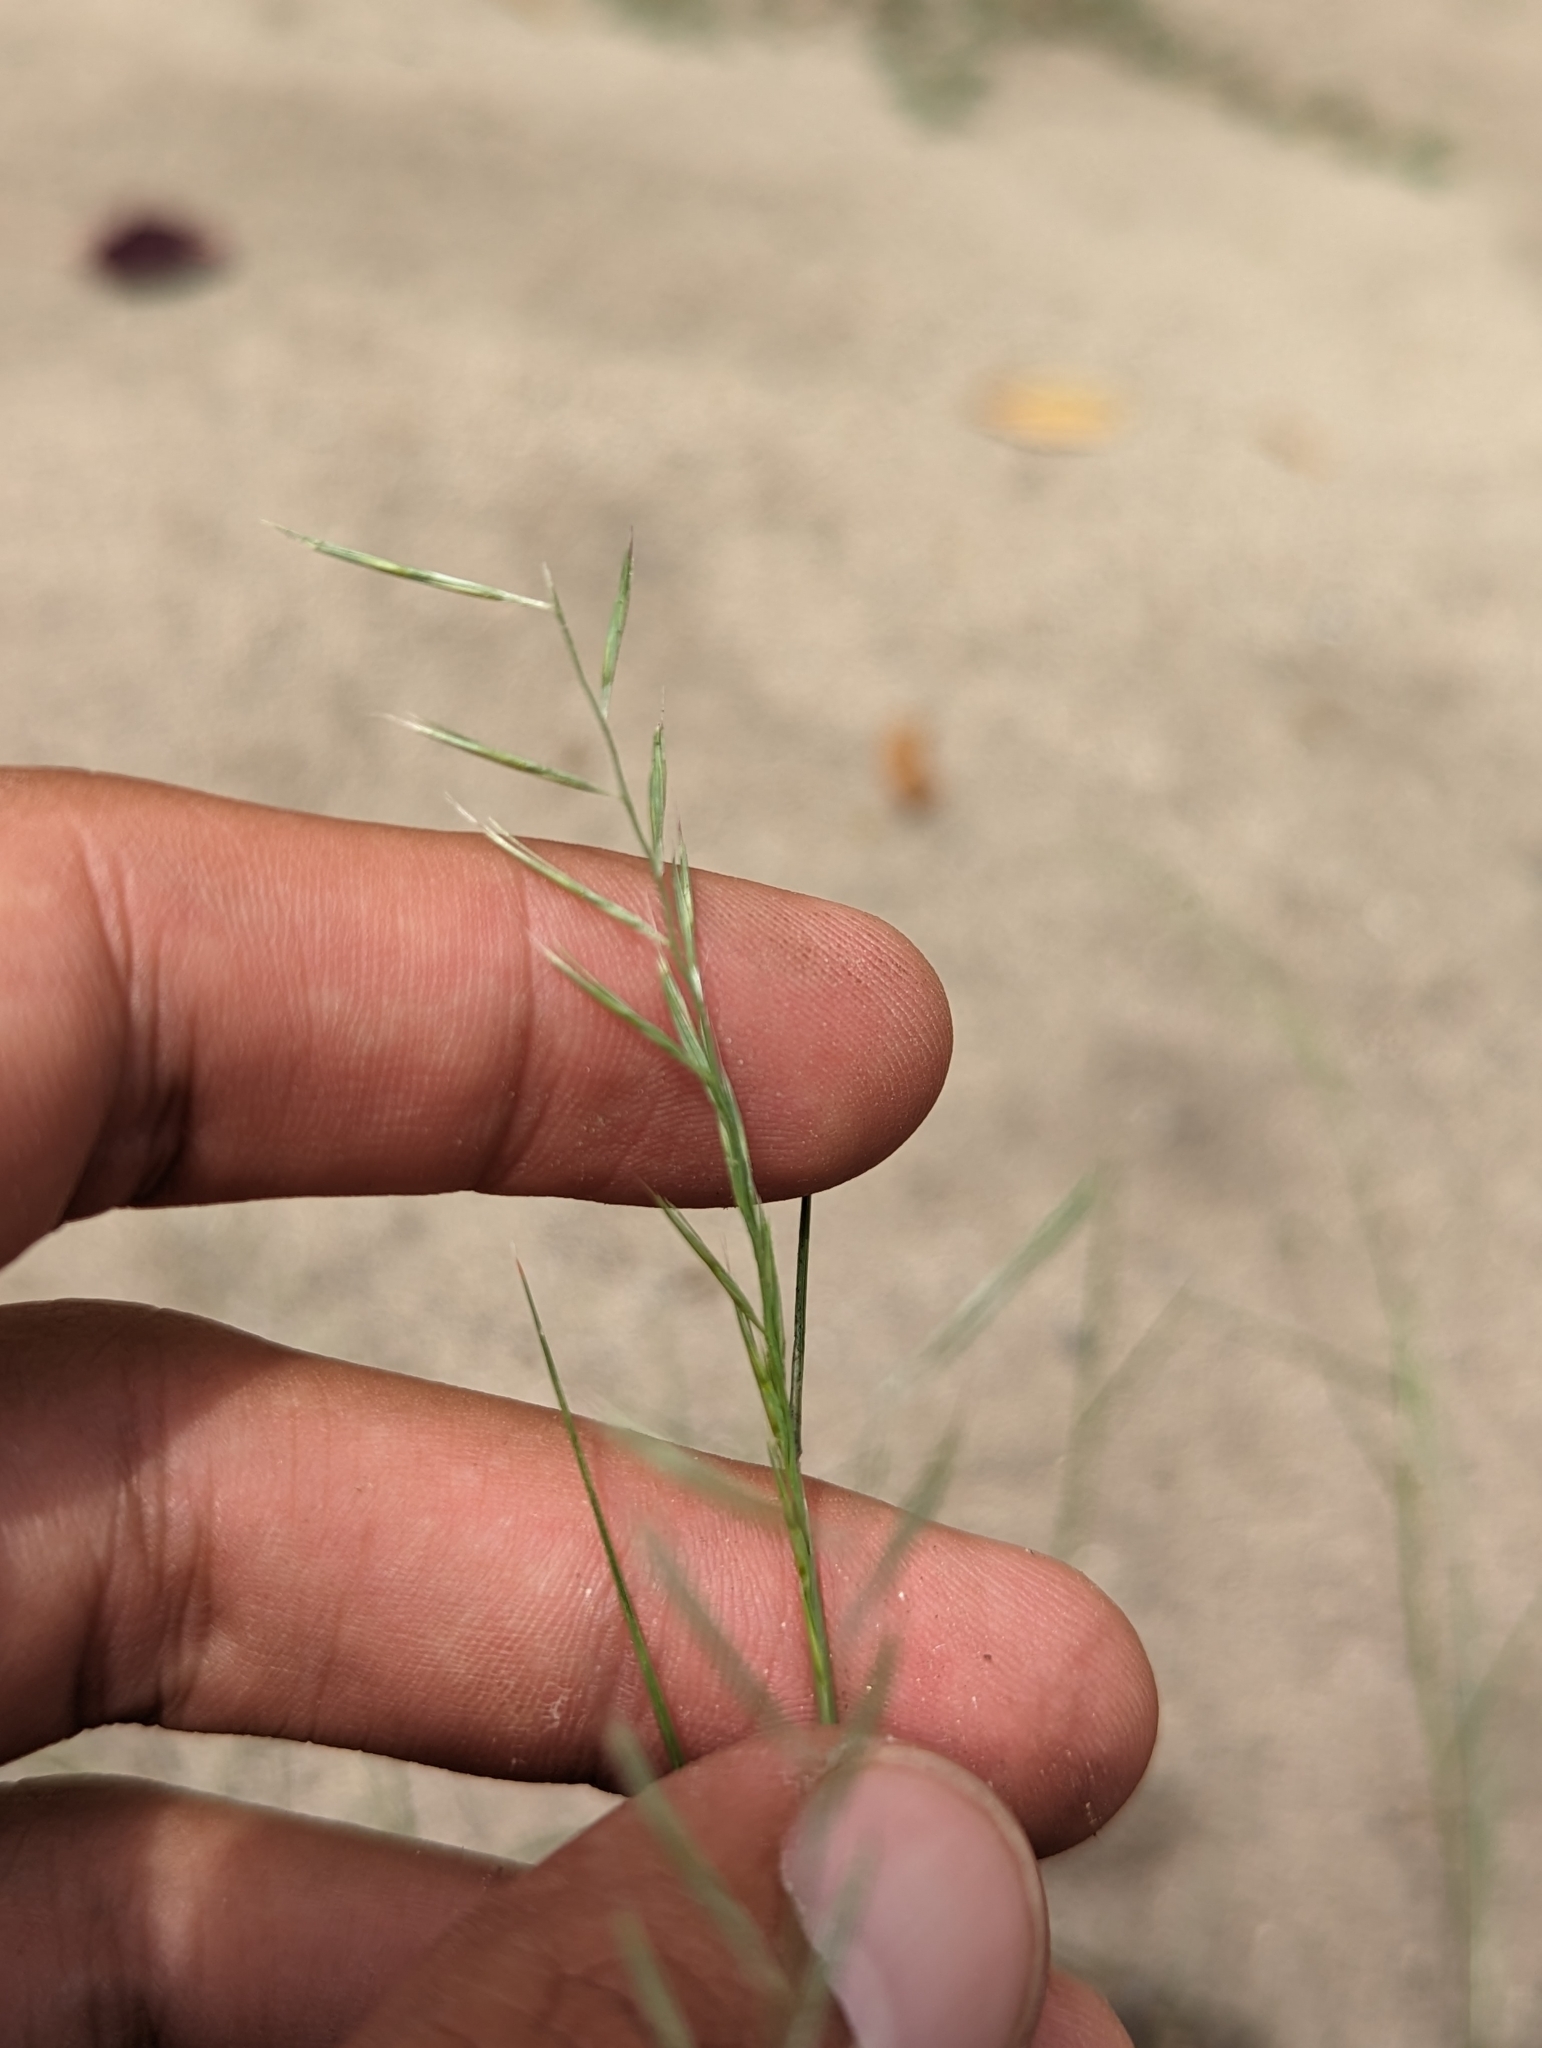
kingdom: Plantae
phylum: Tracheophyta
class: Liliopsida
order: Poales
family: Poaceae
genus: Bouteloua
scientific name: Bouteloua aristidoides
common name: Needle grama
